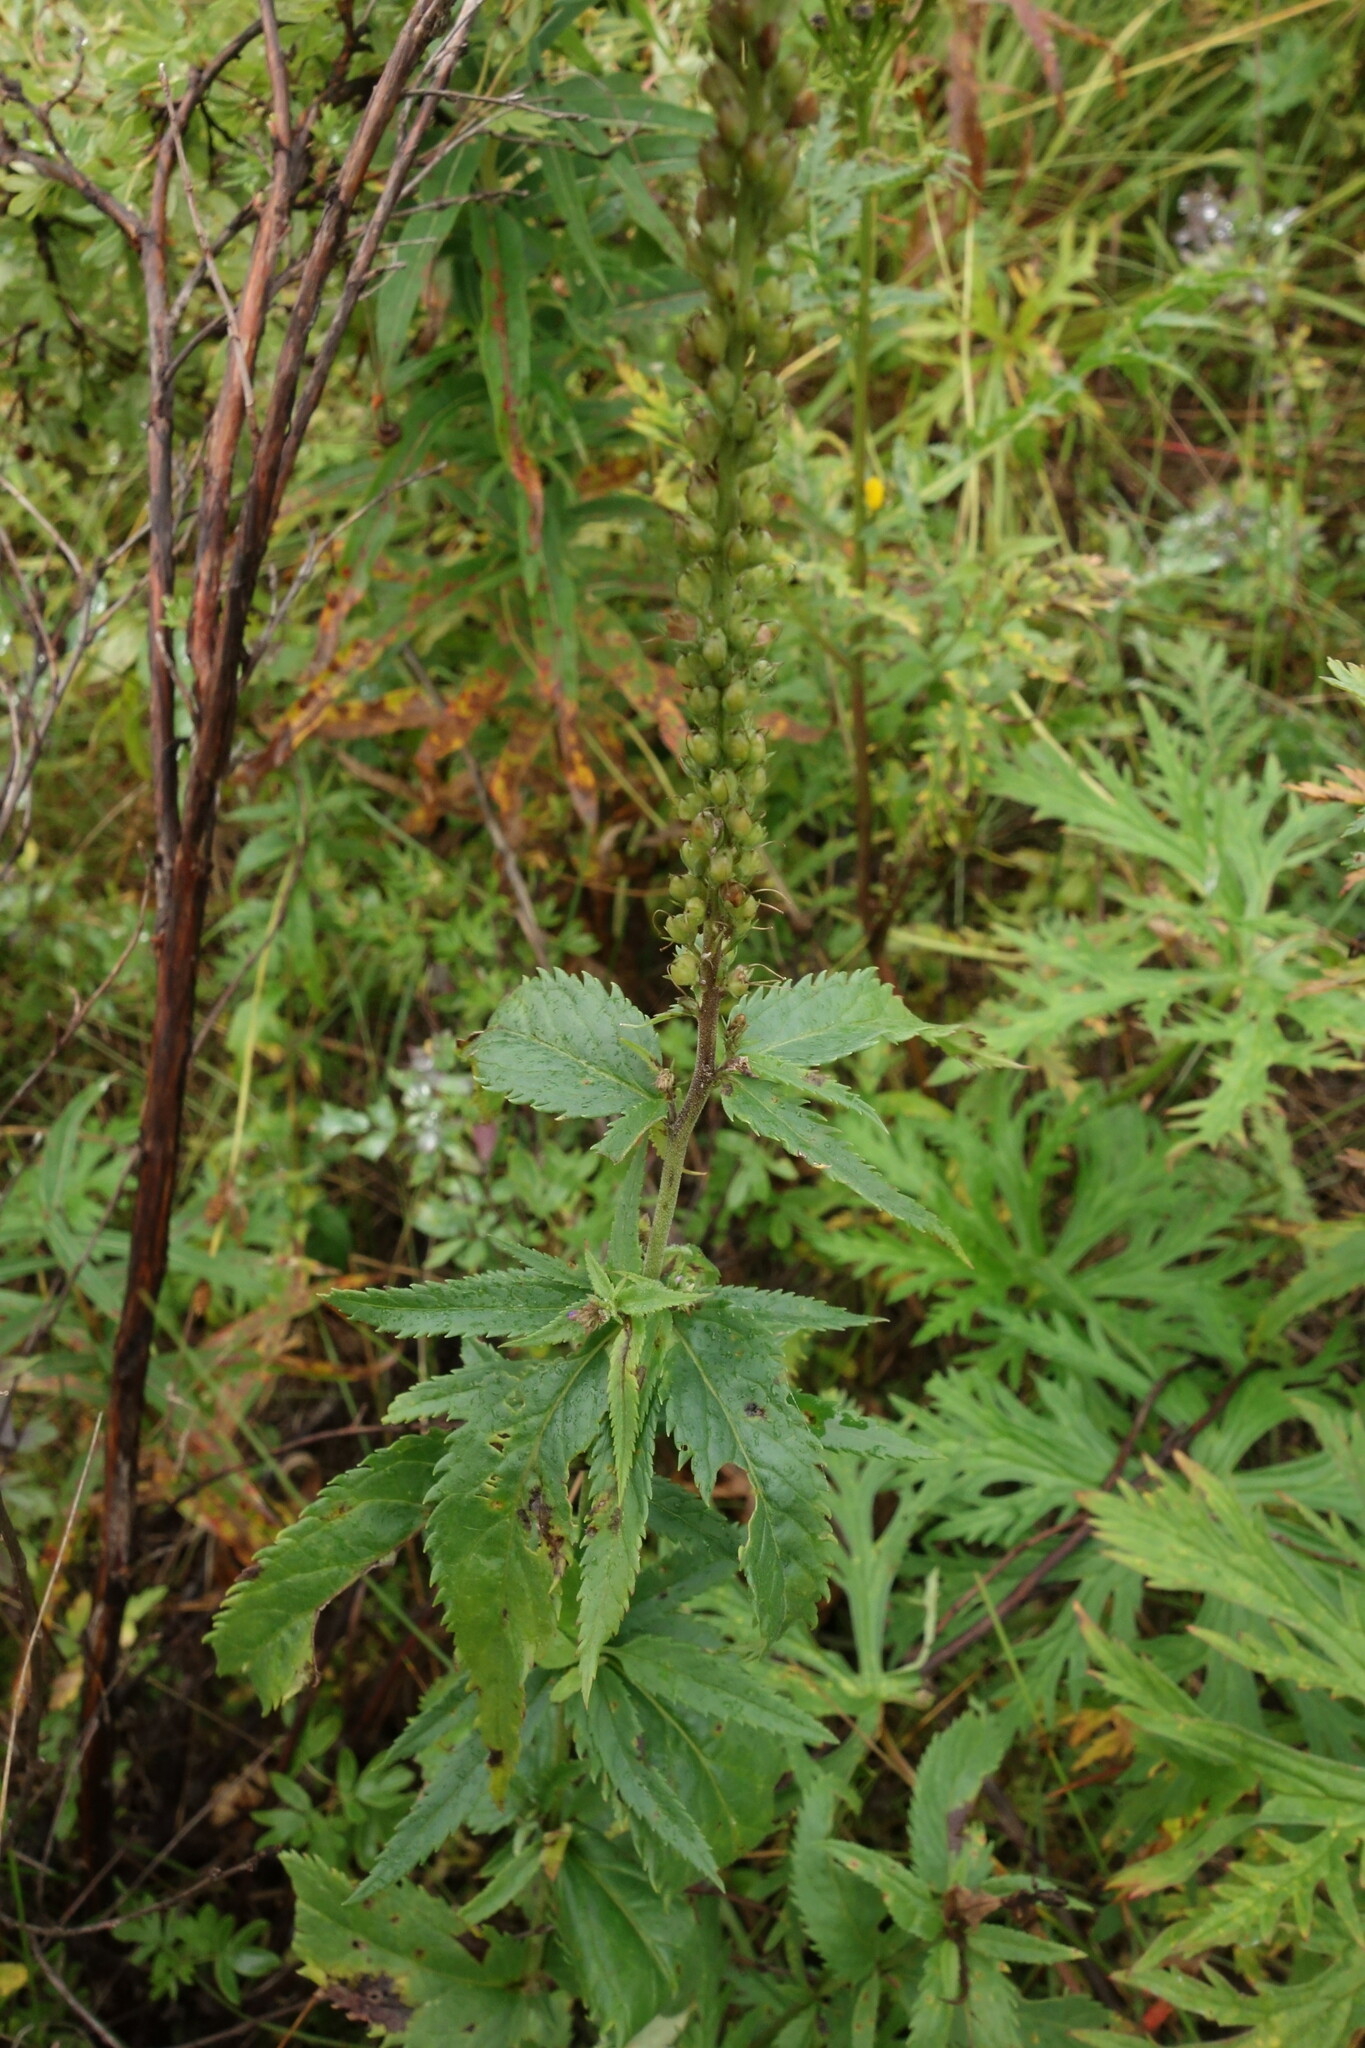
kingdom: Plantae
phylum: Tracheophyta
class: Magnoliopsida
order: Lamiales
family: Plantaginaceae
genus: Veronica
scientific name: Veronica longifolia
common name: Garden speedwell
